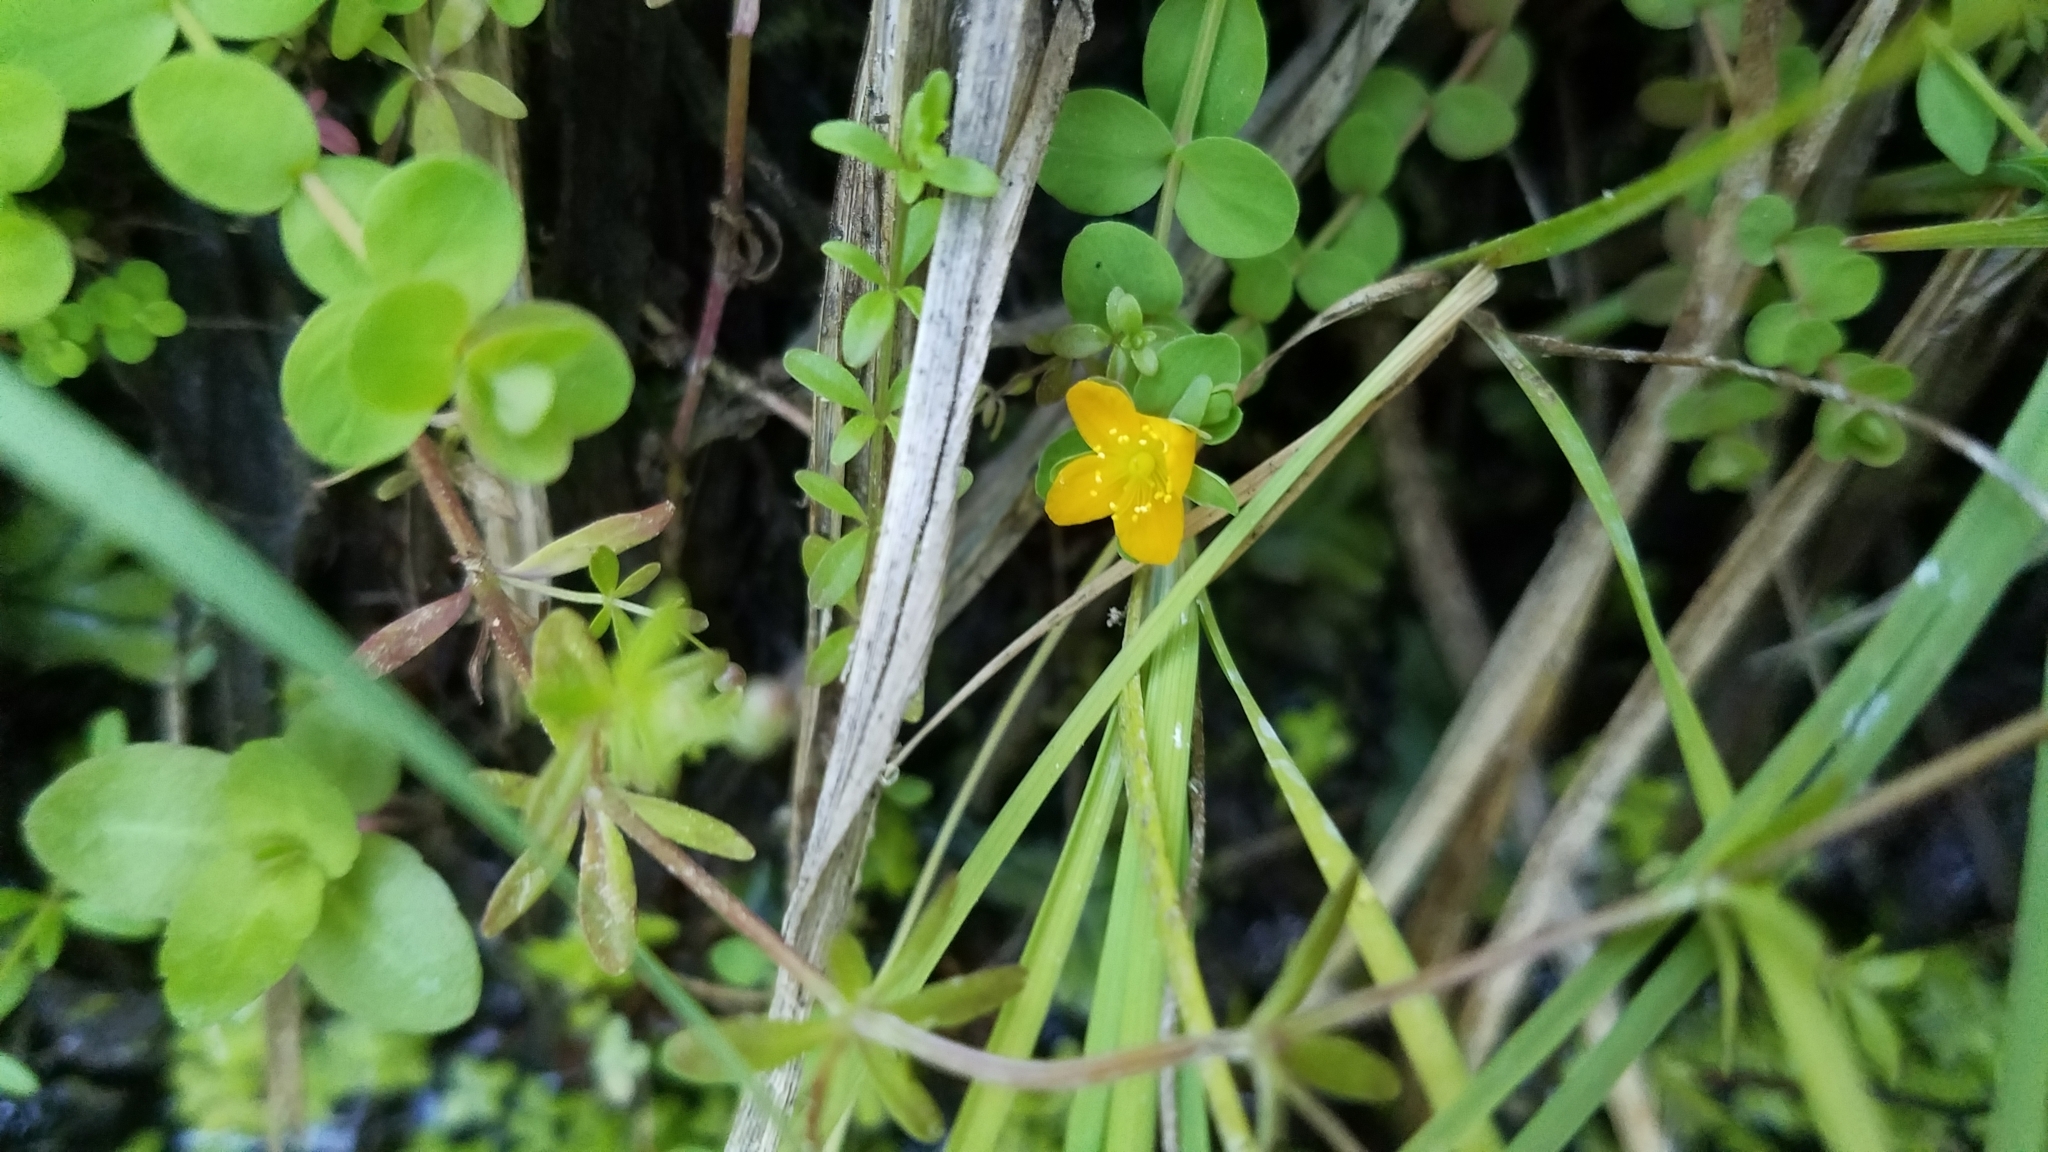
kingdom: Plantae
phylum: Tracheophyta
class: Magnoliopsida
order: Malpighiales
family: Hypericaceae
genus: Hypericum
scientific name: Hypericum anagalloides
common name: Bog st. john's-wort
